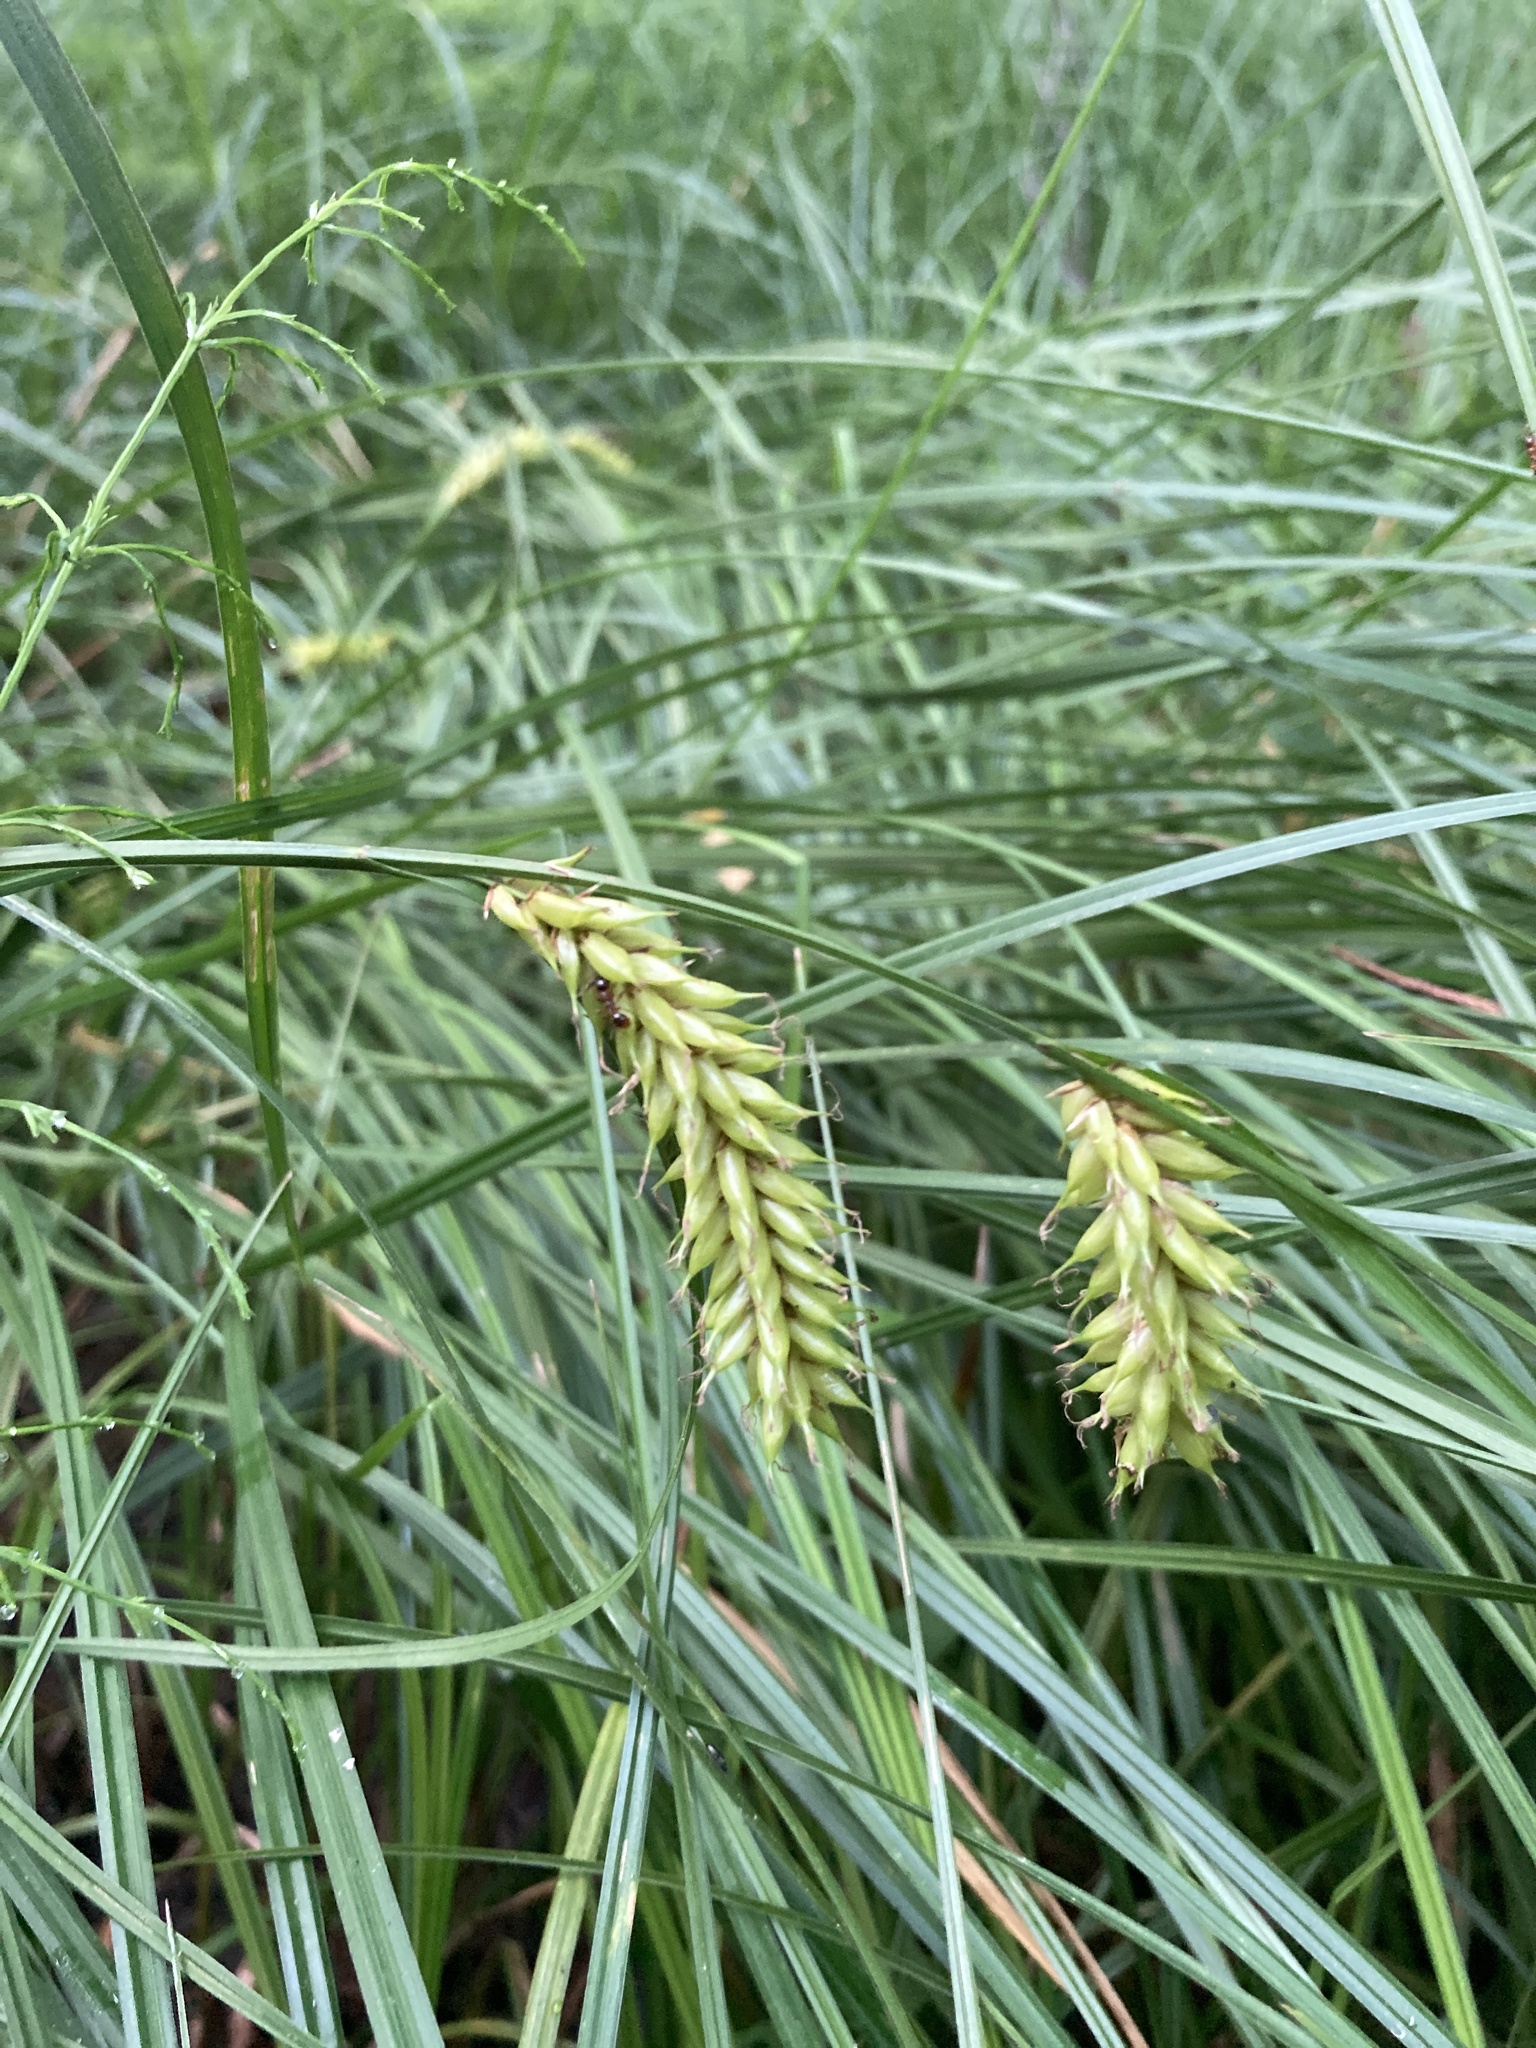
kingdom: Plantae
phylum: Tracheophyta
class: Liliopsida
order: Poales
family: Cyperaceae
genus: Carex
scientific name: Carex vesicaria
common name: Bladder-sedge
